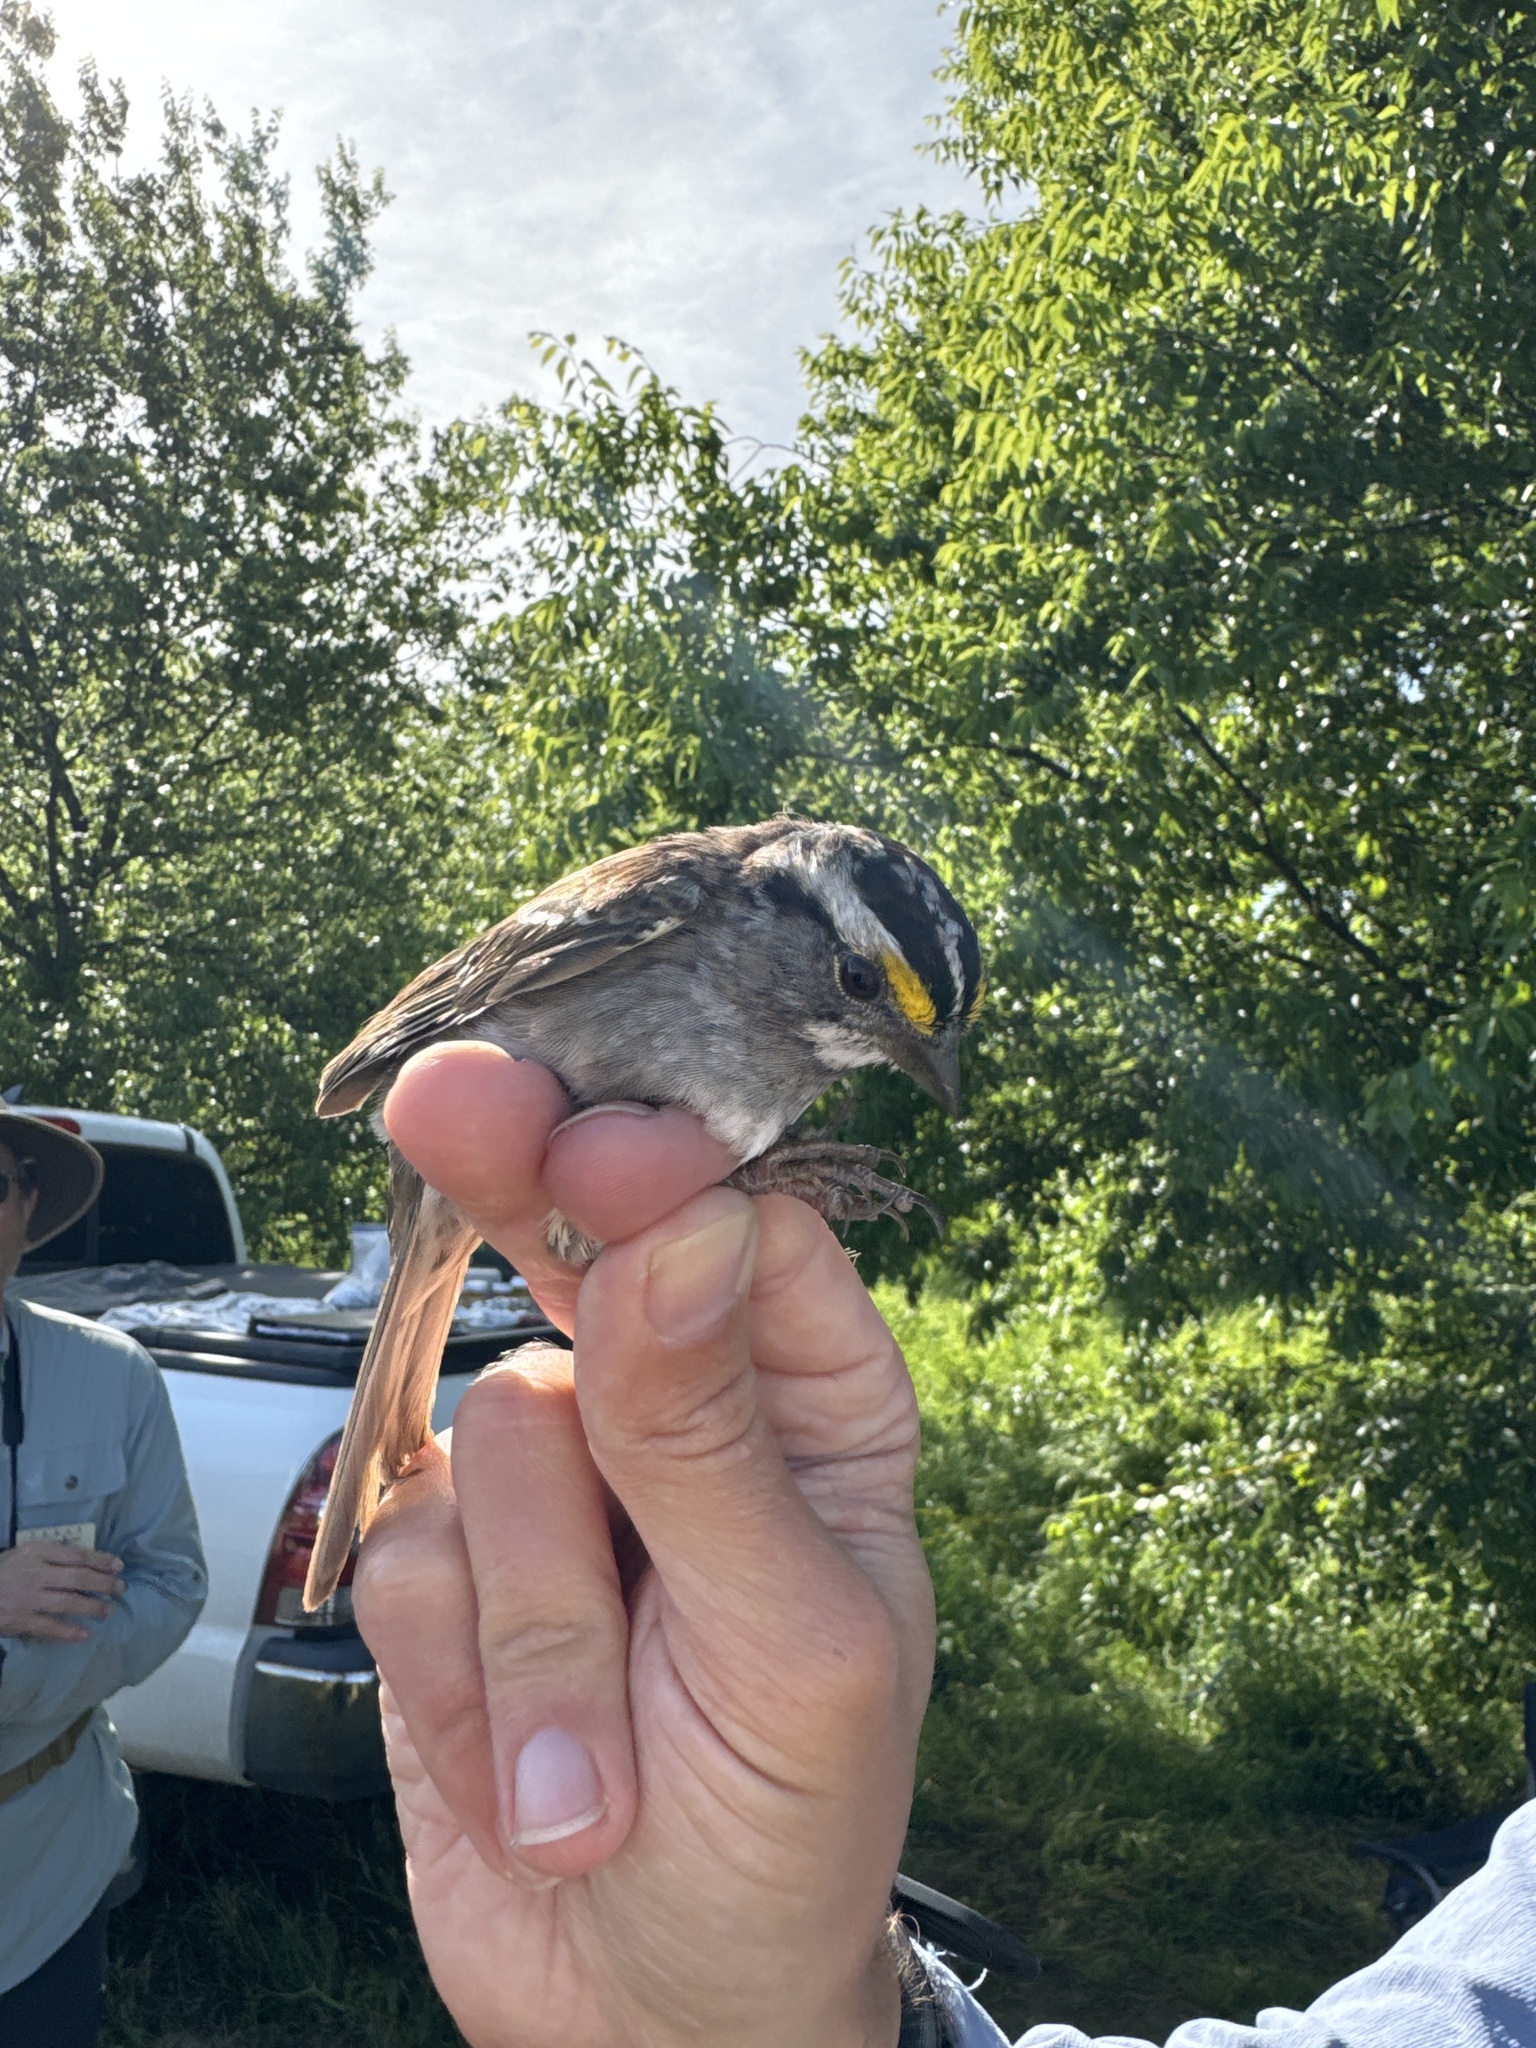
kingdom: Animalia
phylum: Chordata
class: Aves
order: Passeriformes
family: Passerellidae
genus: Zonotrichia
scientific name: Zonotrichia albicollis
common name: White-throated sparrow
